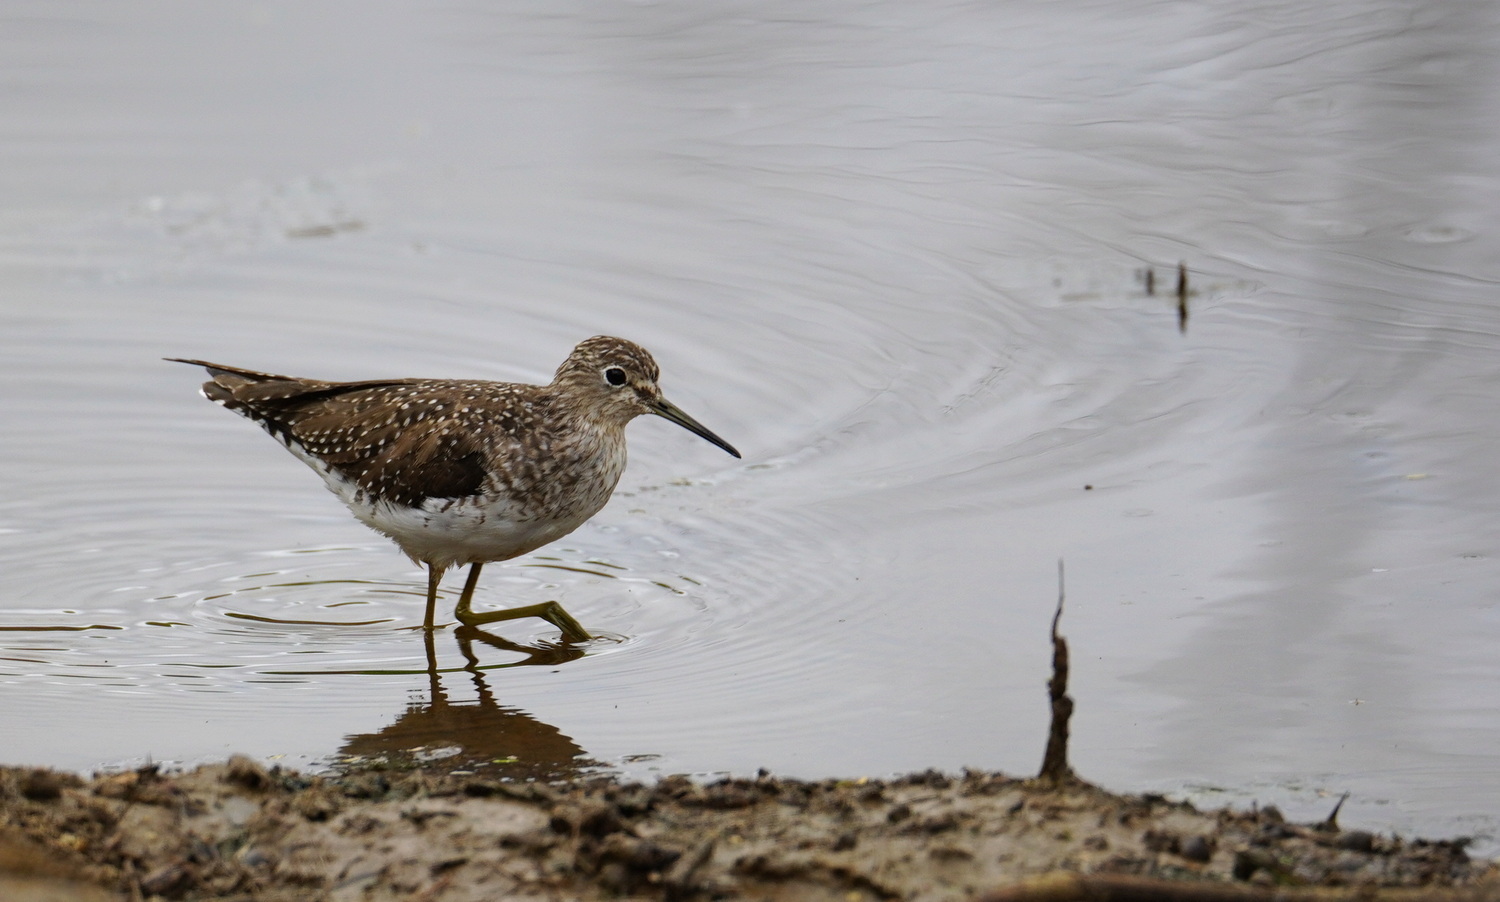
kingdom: Animalia
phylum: Chordata
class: Aves
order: Charadriiformes
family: Scolopacidae
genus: Tringa
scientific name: Tringa solitaria
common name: Solitary sandpiper
